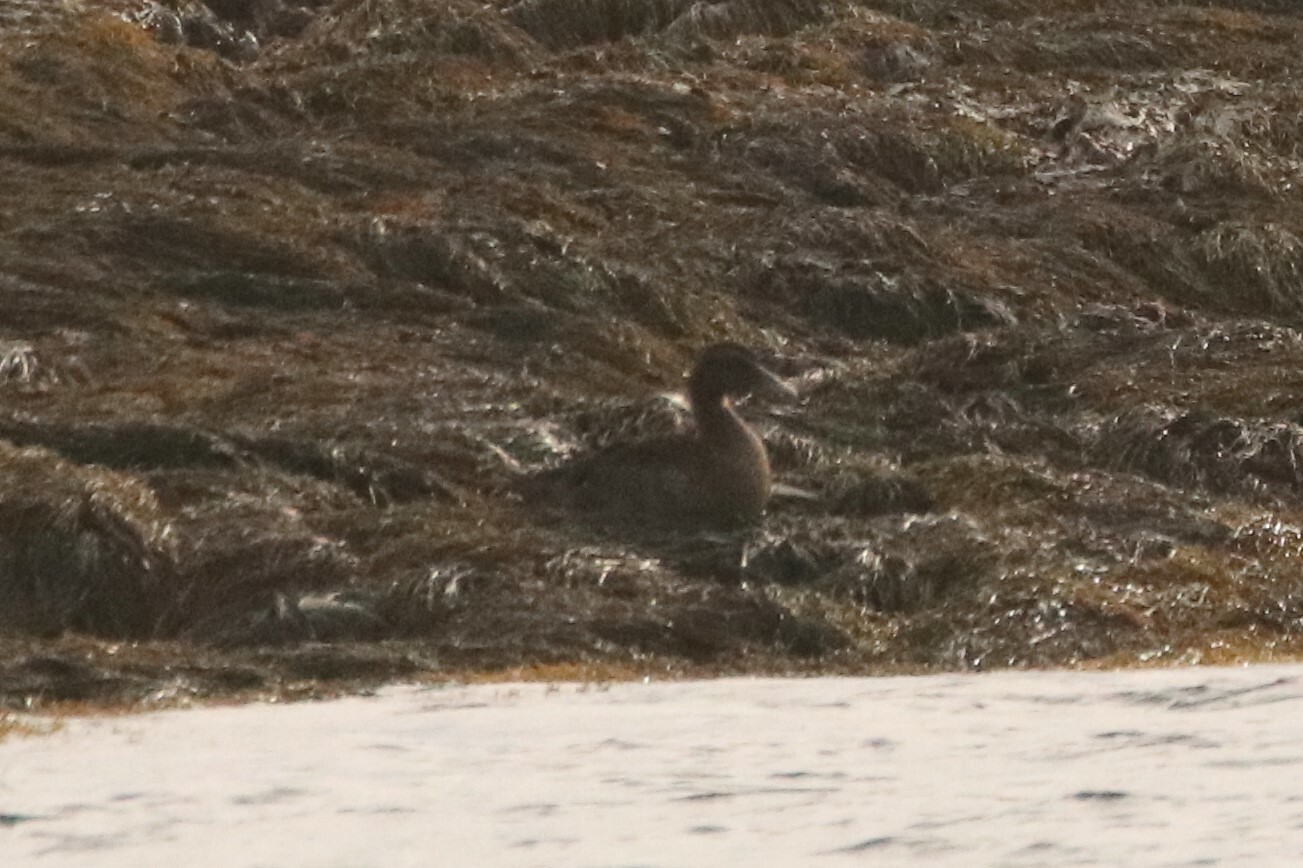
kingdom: Animalia
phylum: Chordata
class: Aves
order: Anseriformes
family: Anatidae
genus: Somateria
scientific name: Somateria mollissima
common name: Common eider
